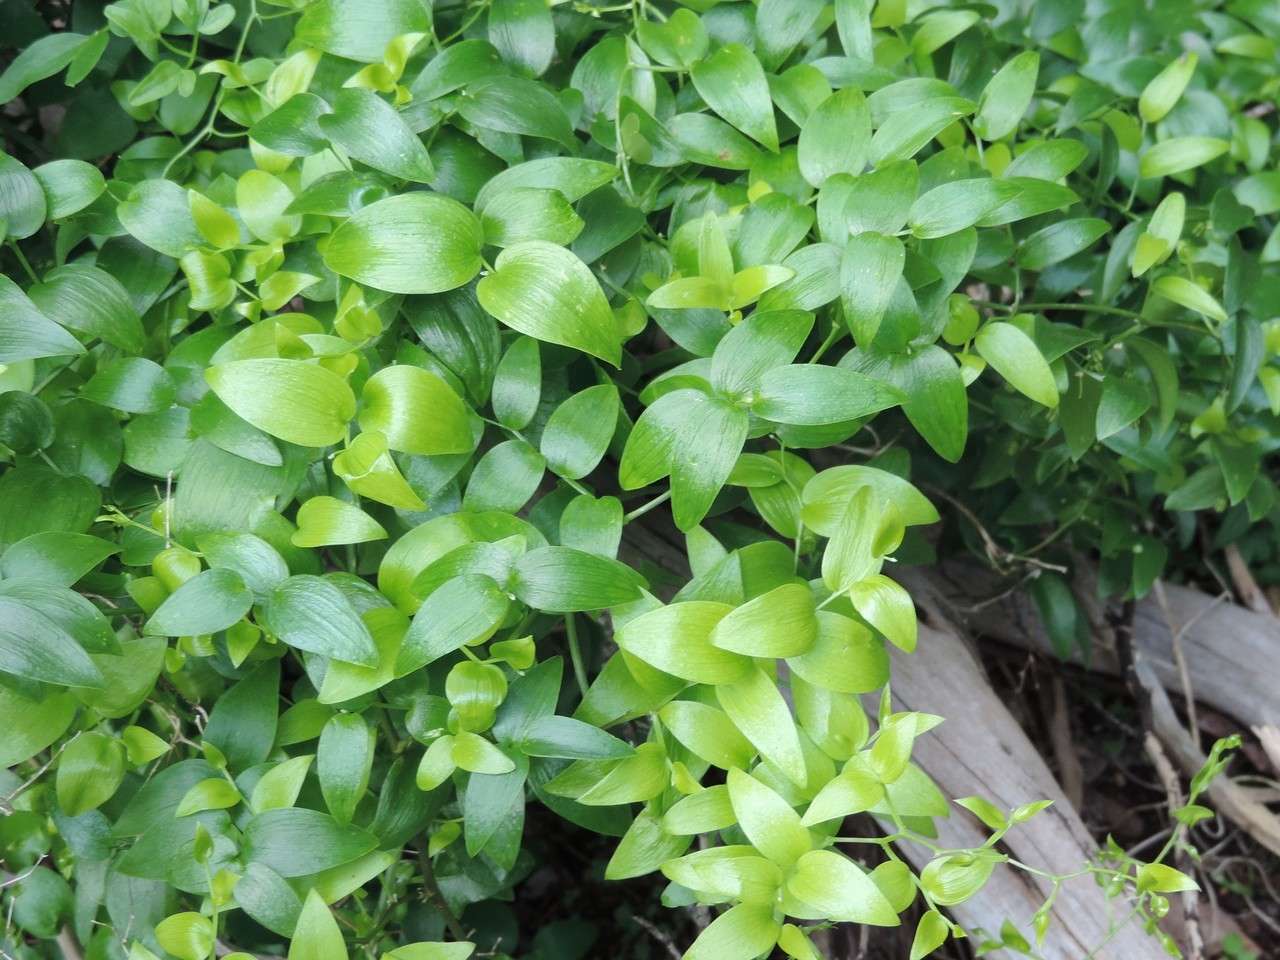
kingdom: Plantae
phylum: Tracheophyta
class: Liliopsida
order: Asparagales
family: Asparagaceae
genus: Asparagus
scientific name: Asparagus asparagoides
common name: African asparagus fern
